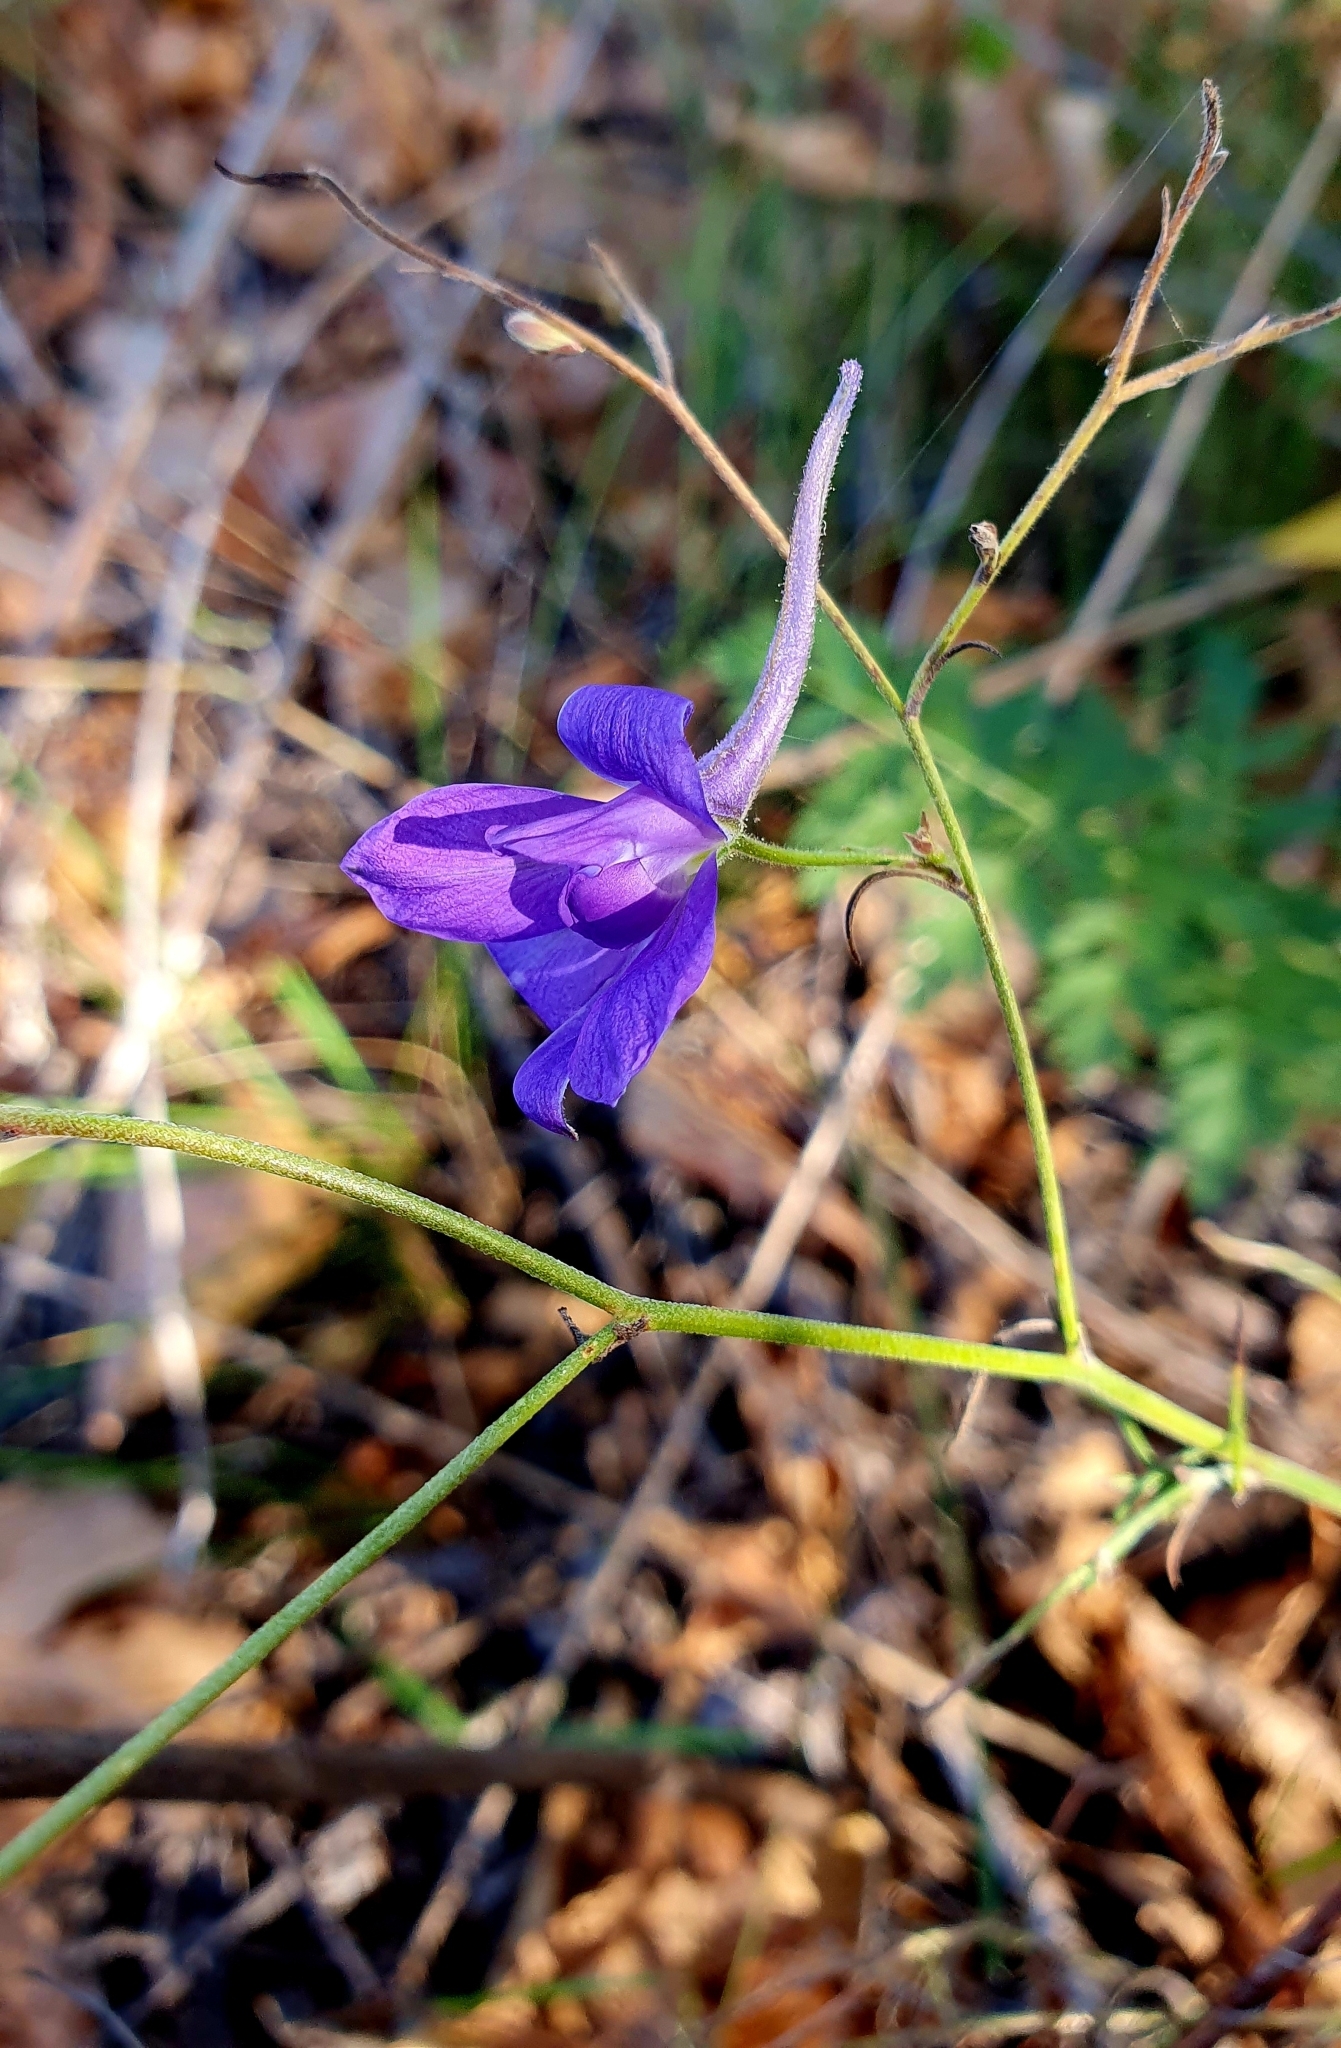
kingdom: Plantae
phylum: Tracheophyta
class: Magnoliopsida
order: Ranunculales
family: Ranunculaceae
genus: Delphinium
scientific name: Delphinium consolida
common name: Branching larkspur
